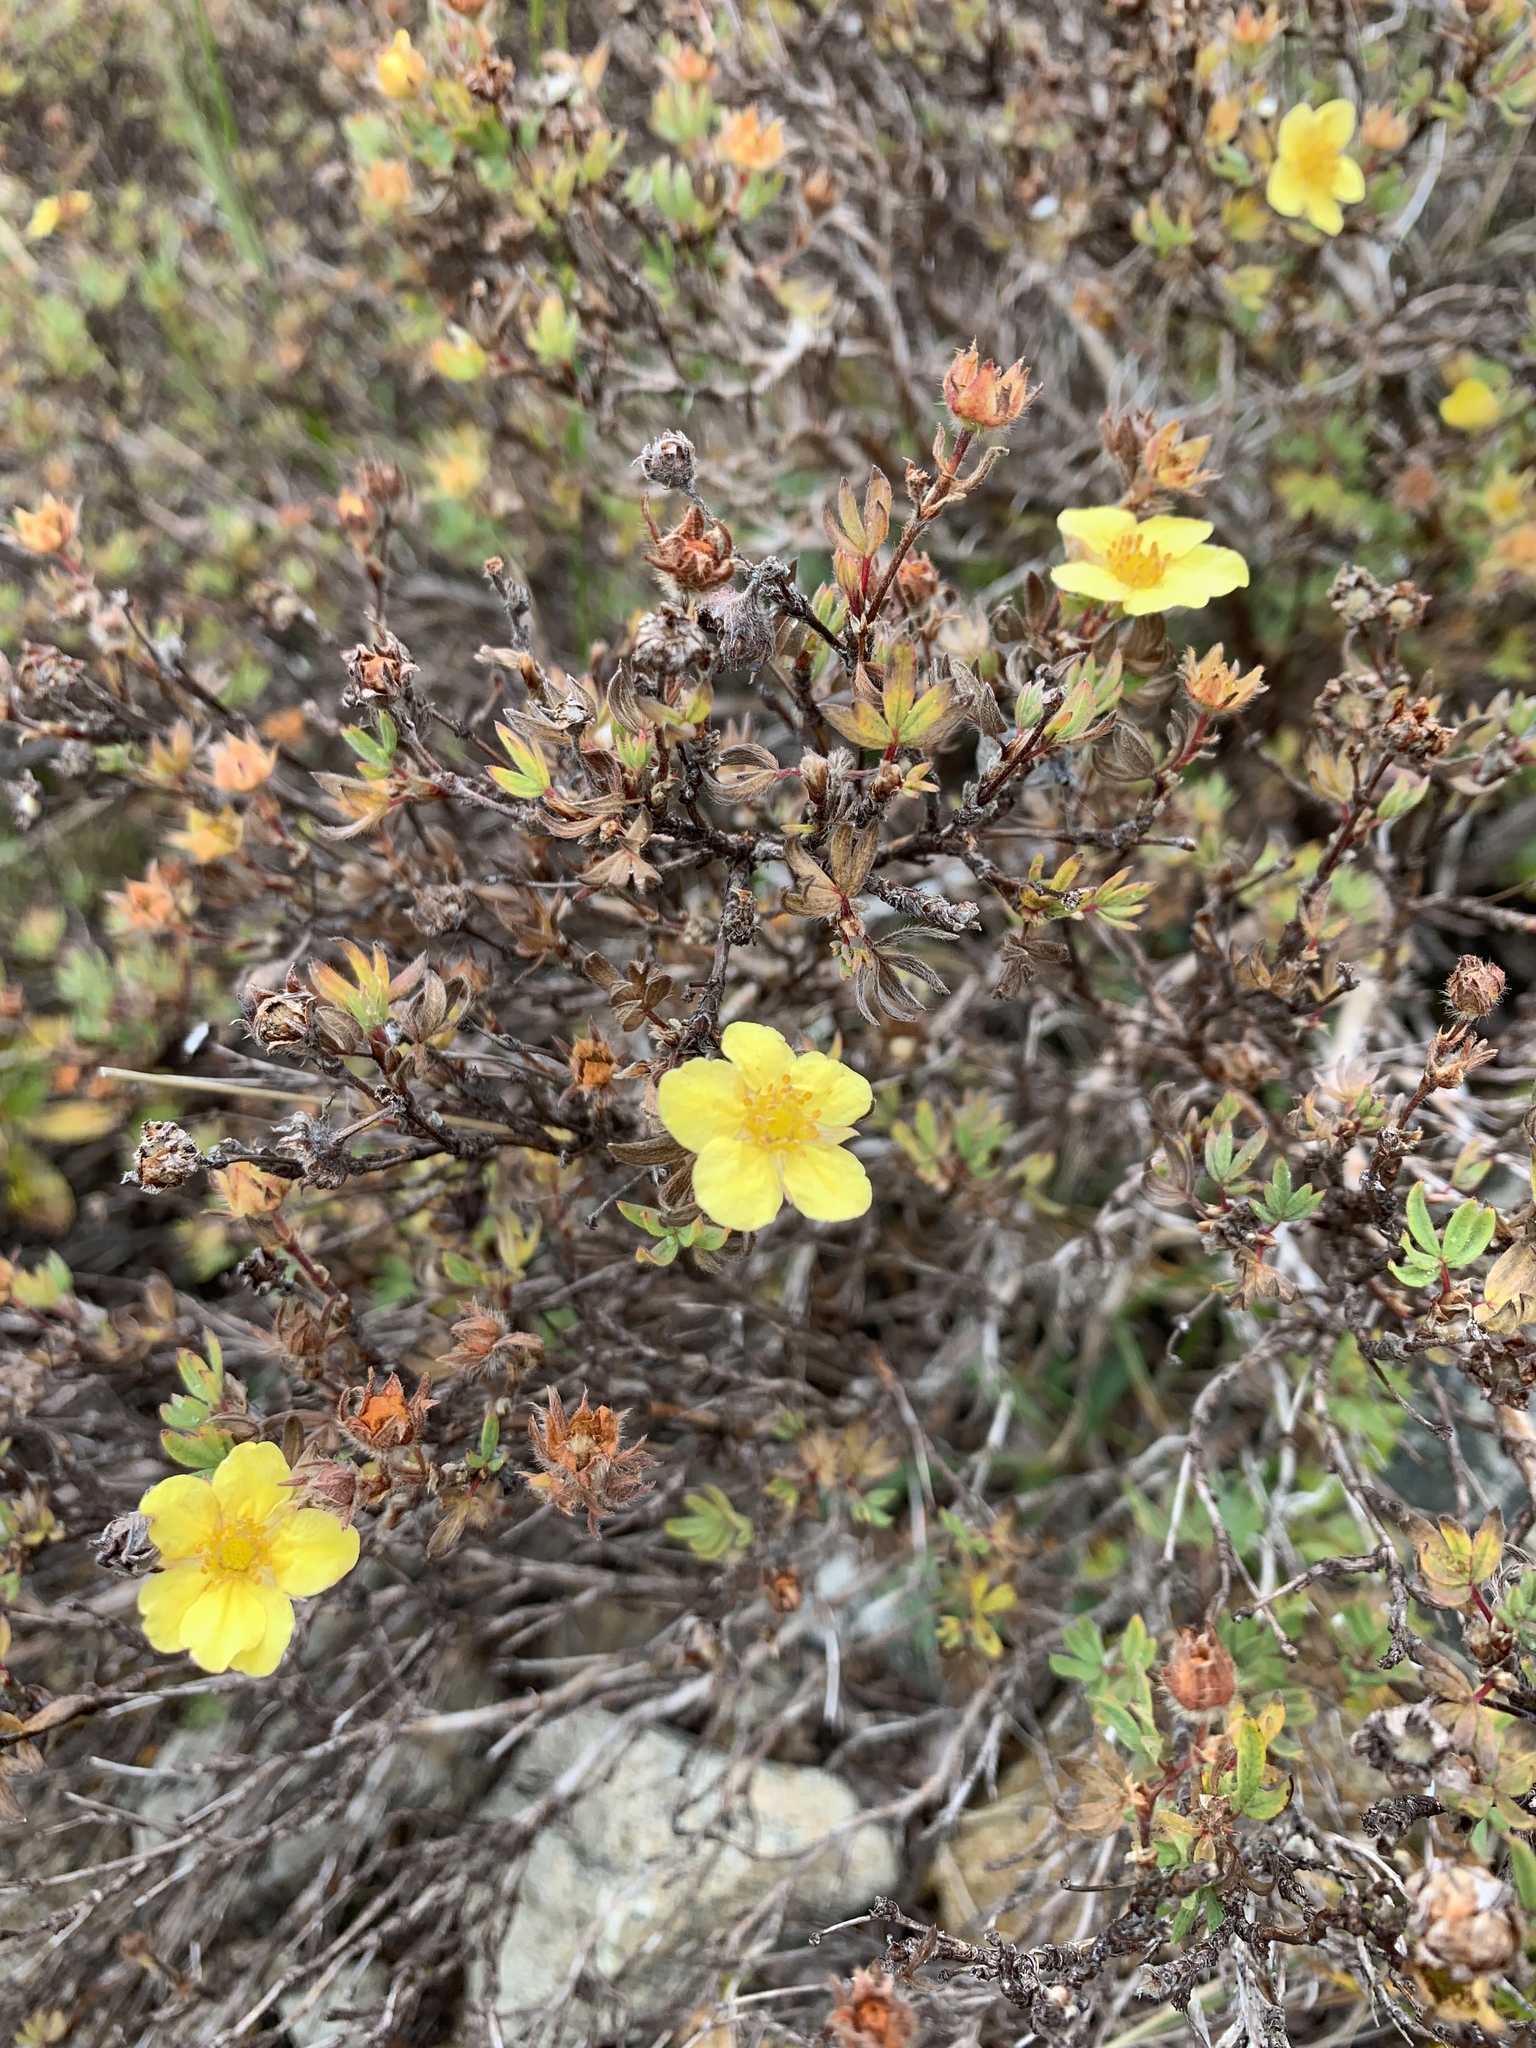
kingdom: Plantae
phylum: Tracheophyta
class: Magnoliopsida
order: Rosales
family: Rosaceae
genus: Dasiphora
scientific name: Dasiphora fruticosa
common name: Shrubby cinquefoil
